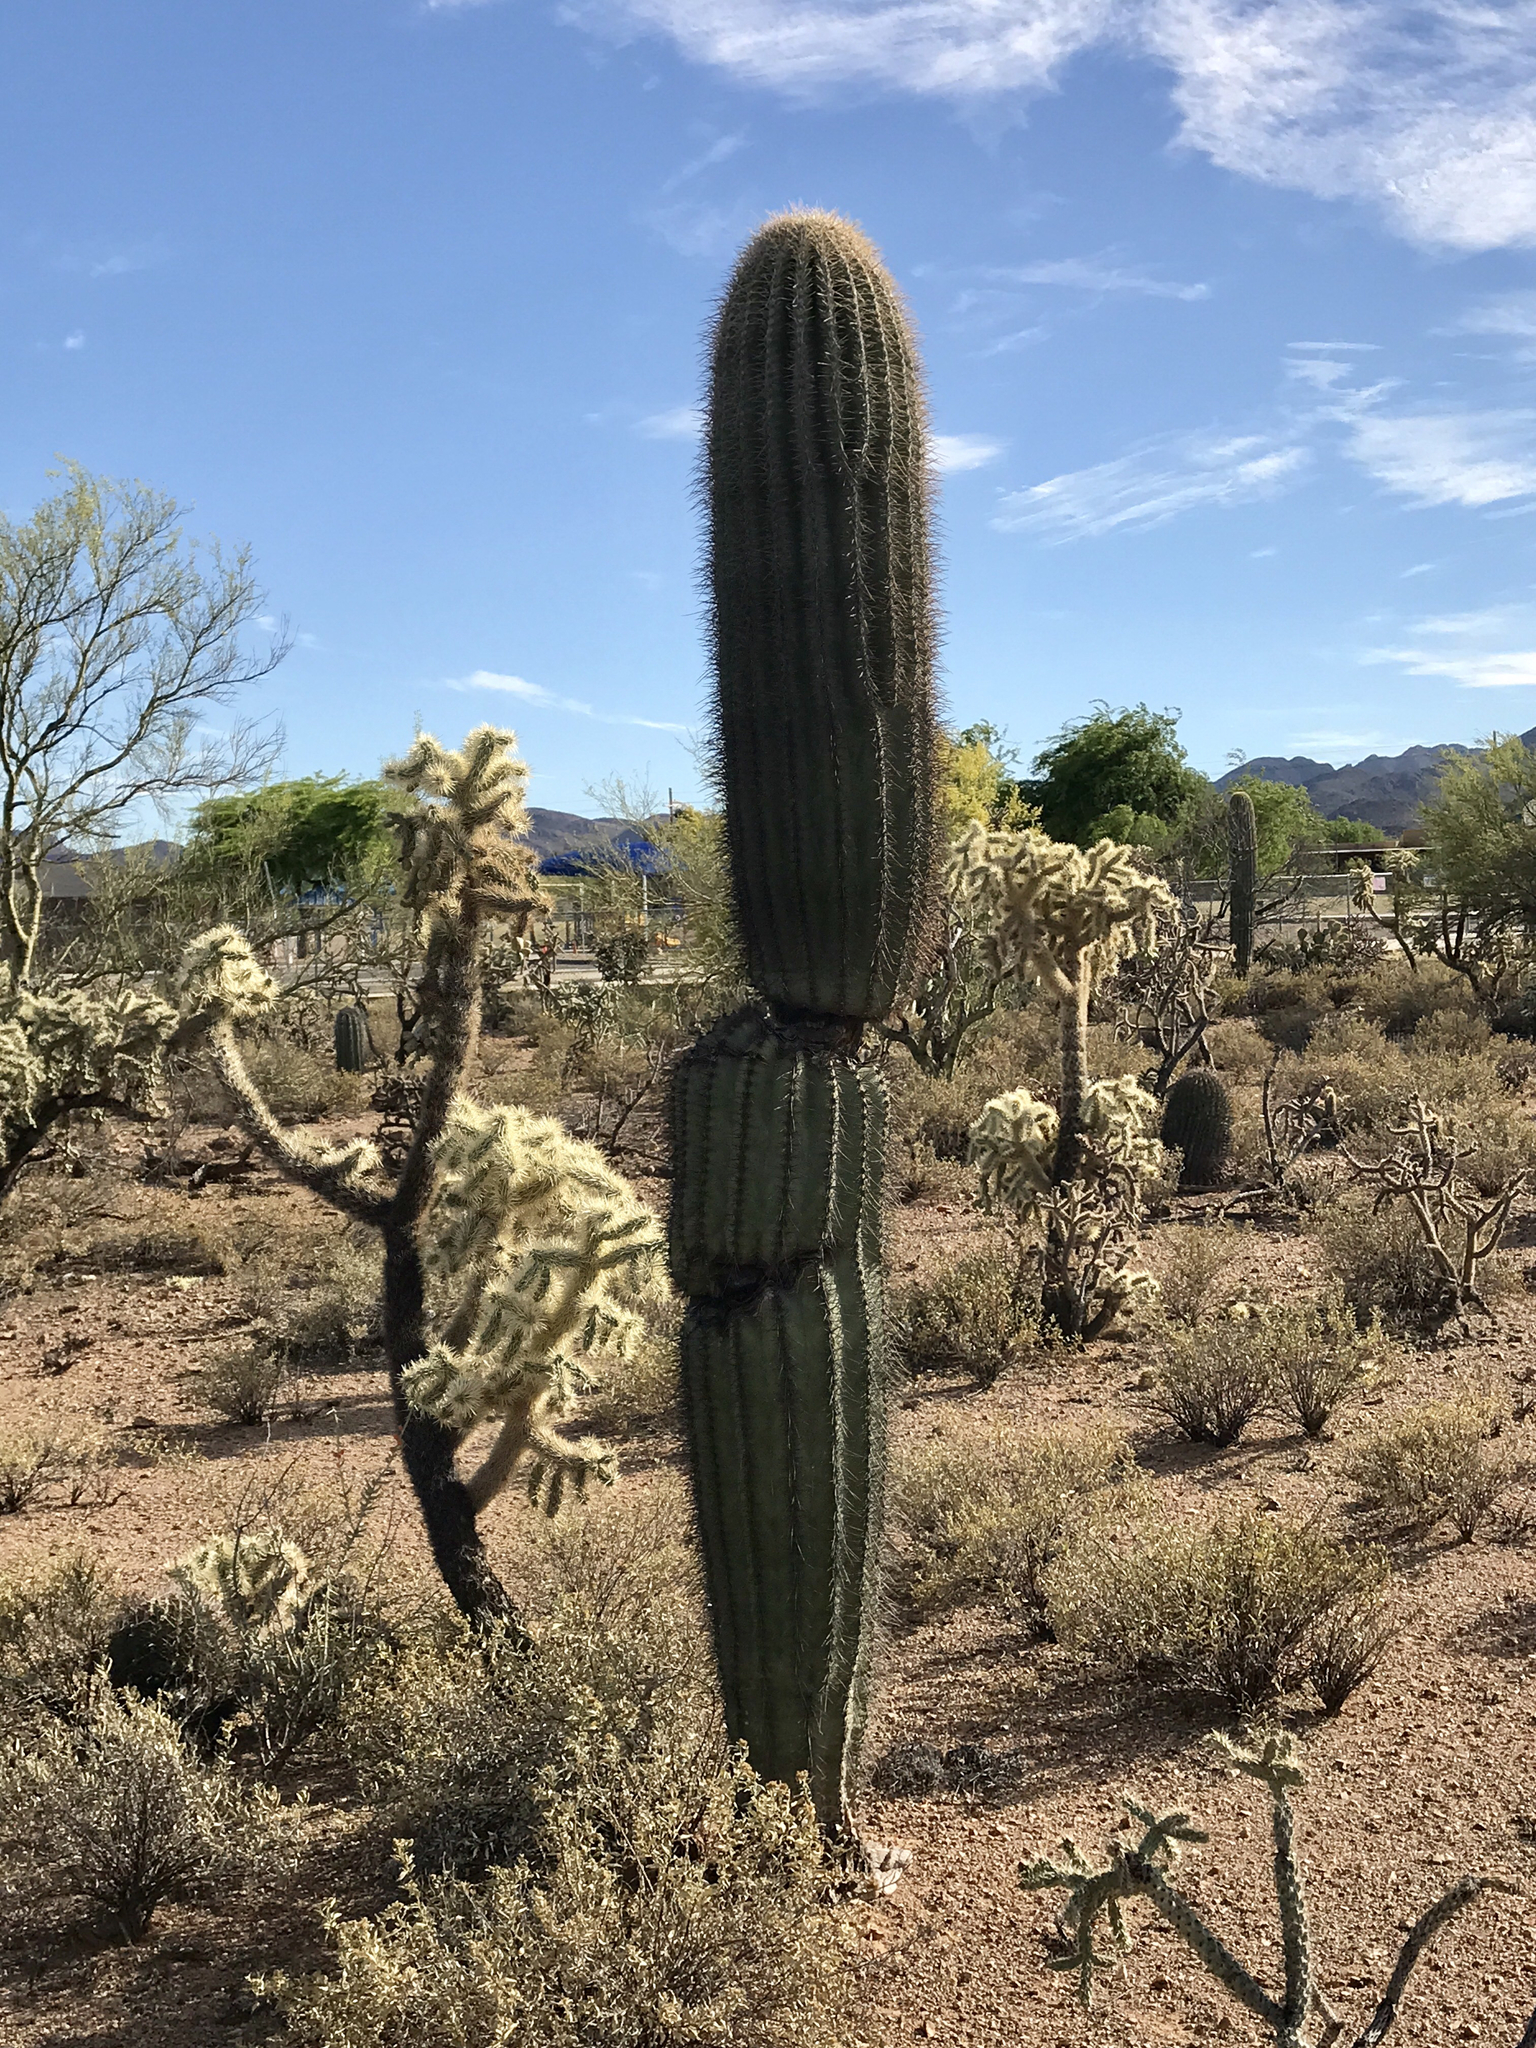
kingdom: Plantae
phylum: Tracheophyta
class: Magnoliopsida
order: Caryophyllales
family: Cactaceae
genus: Carnegiea
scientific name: Carnegiea gigantea
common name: Saguaro
